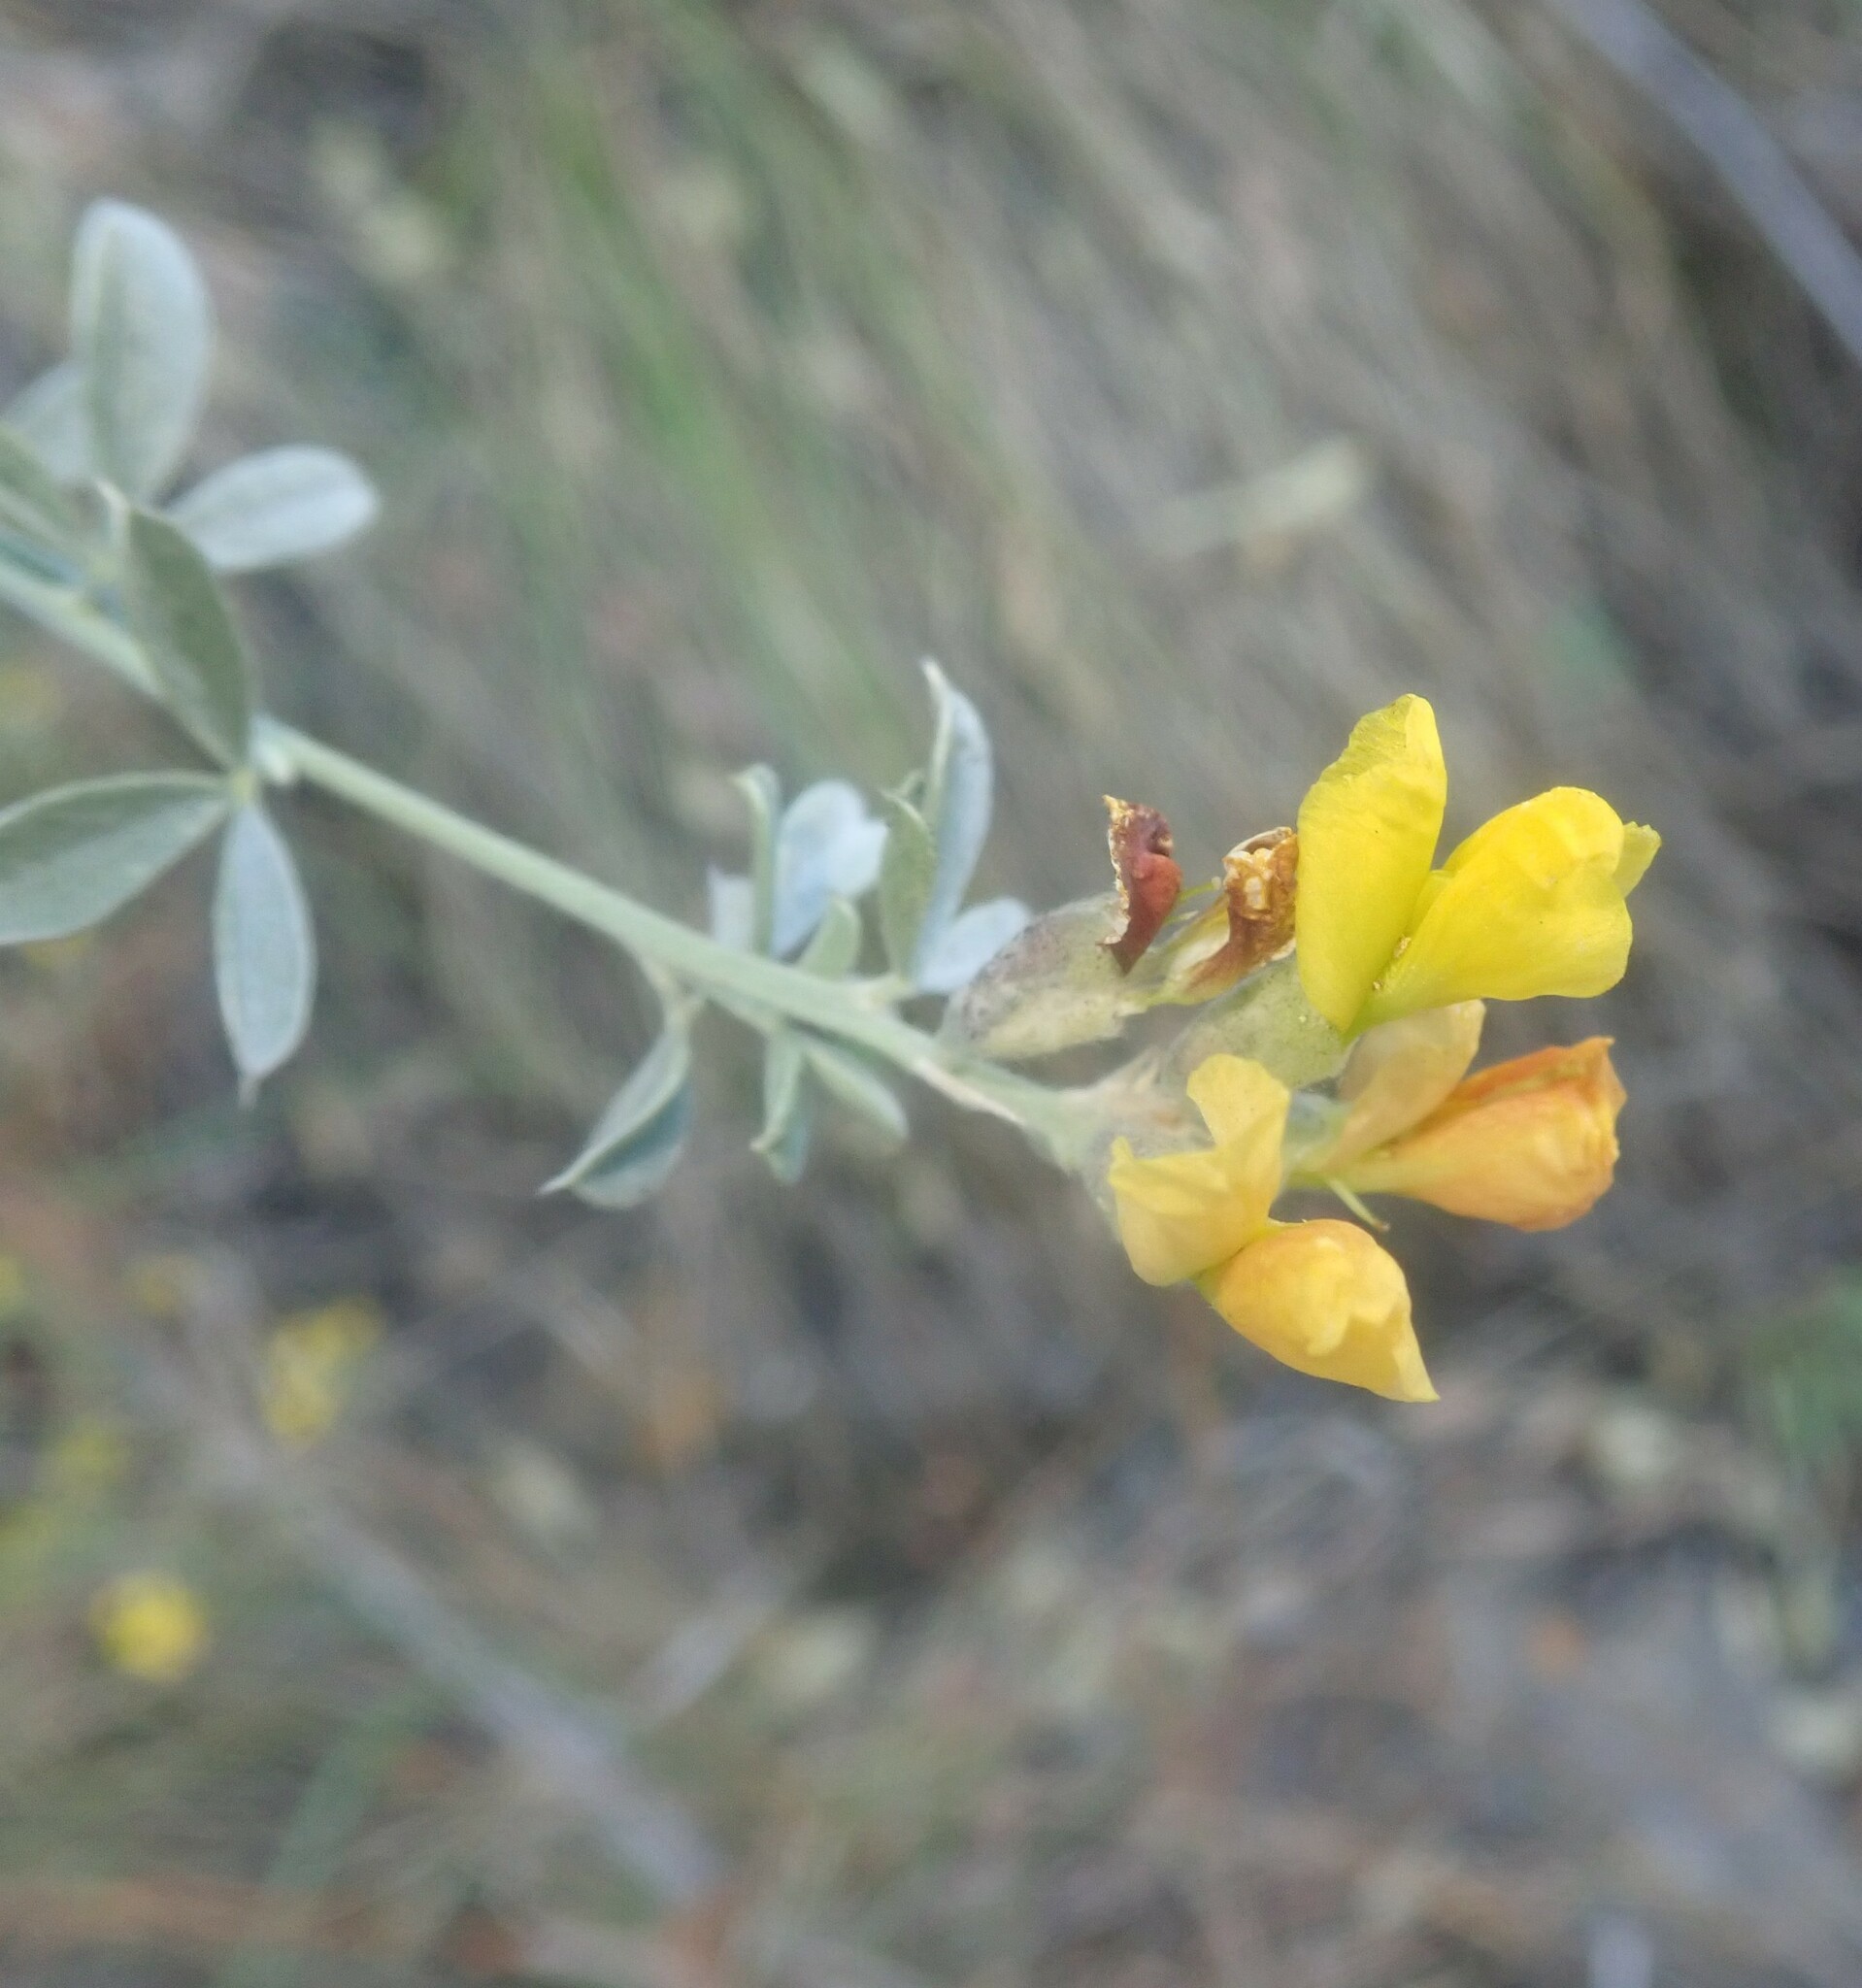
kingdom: Plantae
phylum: Tracheophyta
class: Magnoliopsida
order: Fabales
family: Fabaceae
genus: Pearsonia
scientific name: Pearsonia sessilifolia
